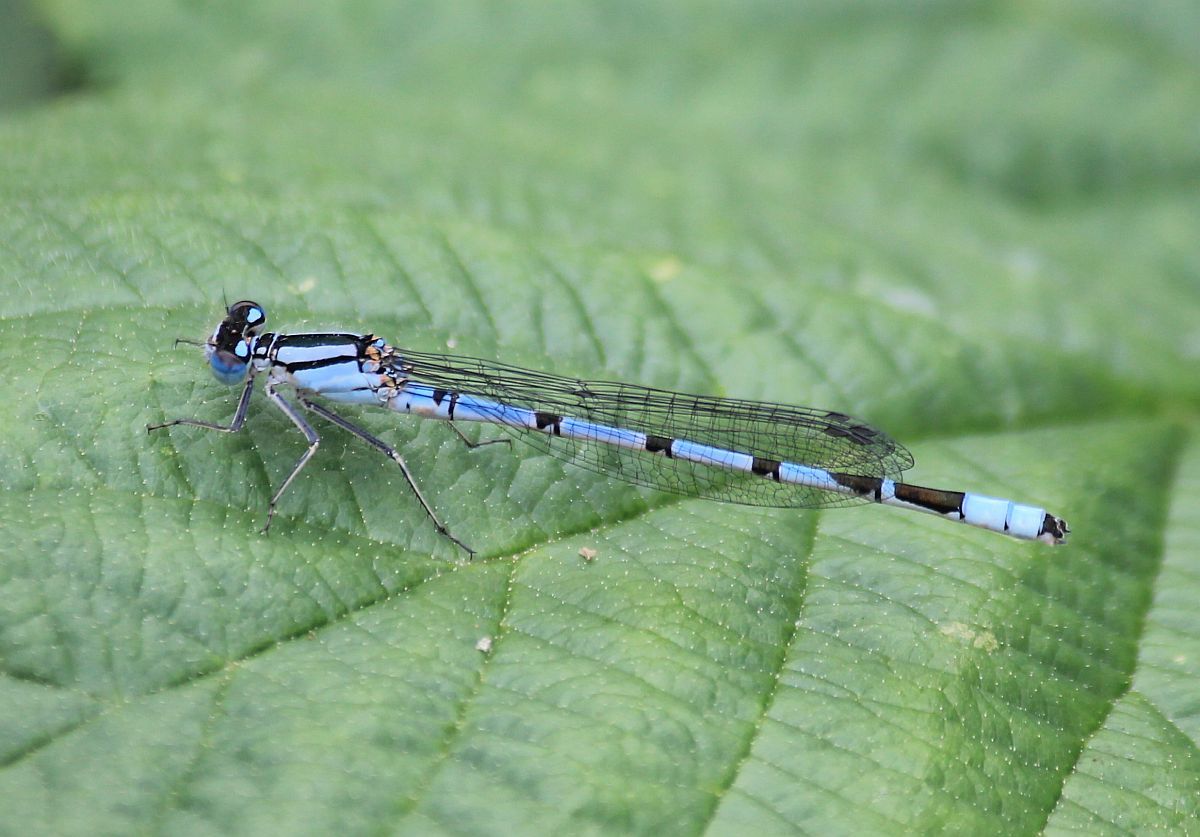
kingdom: Animalia
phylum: Arthropoda
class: Insecta
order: Odonata
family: Coenagrionidae
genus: Enallagma
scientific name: Enallagma cyathigerum
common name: Common blue damselfly
